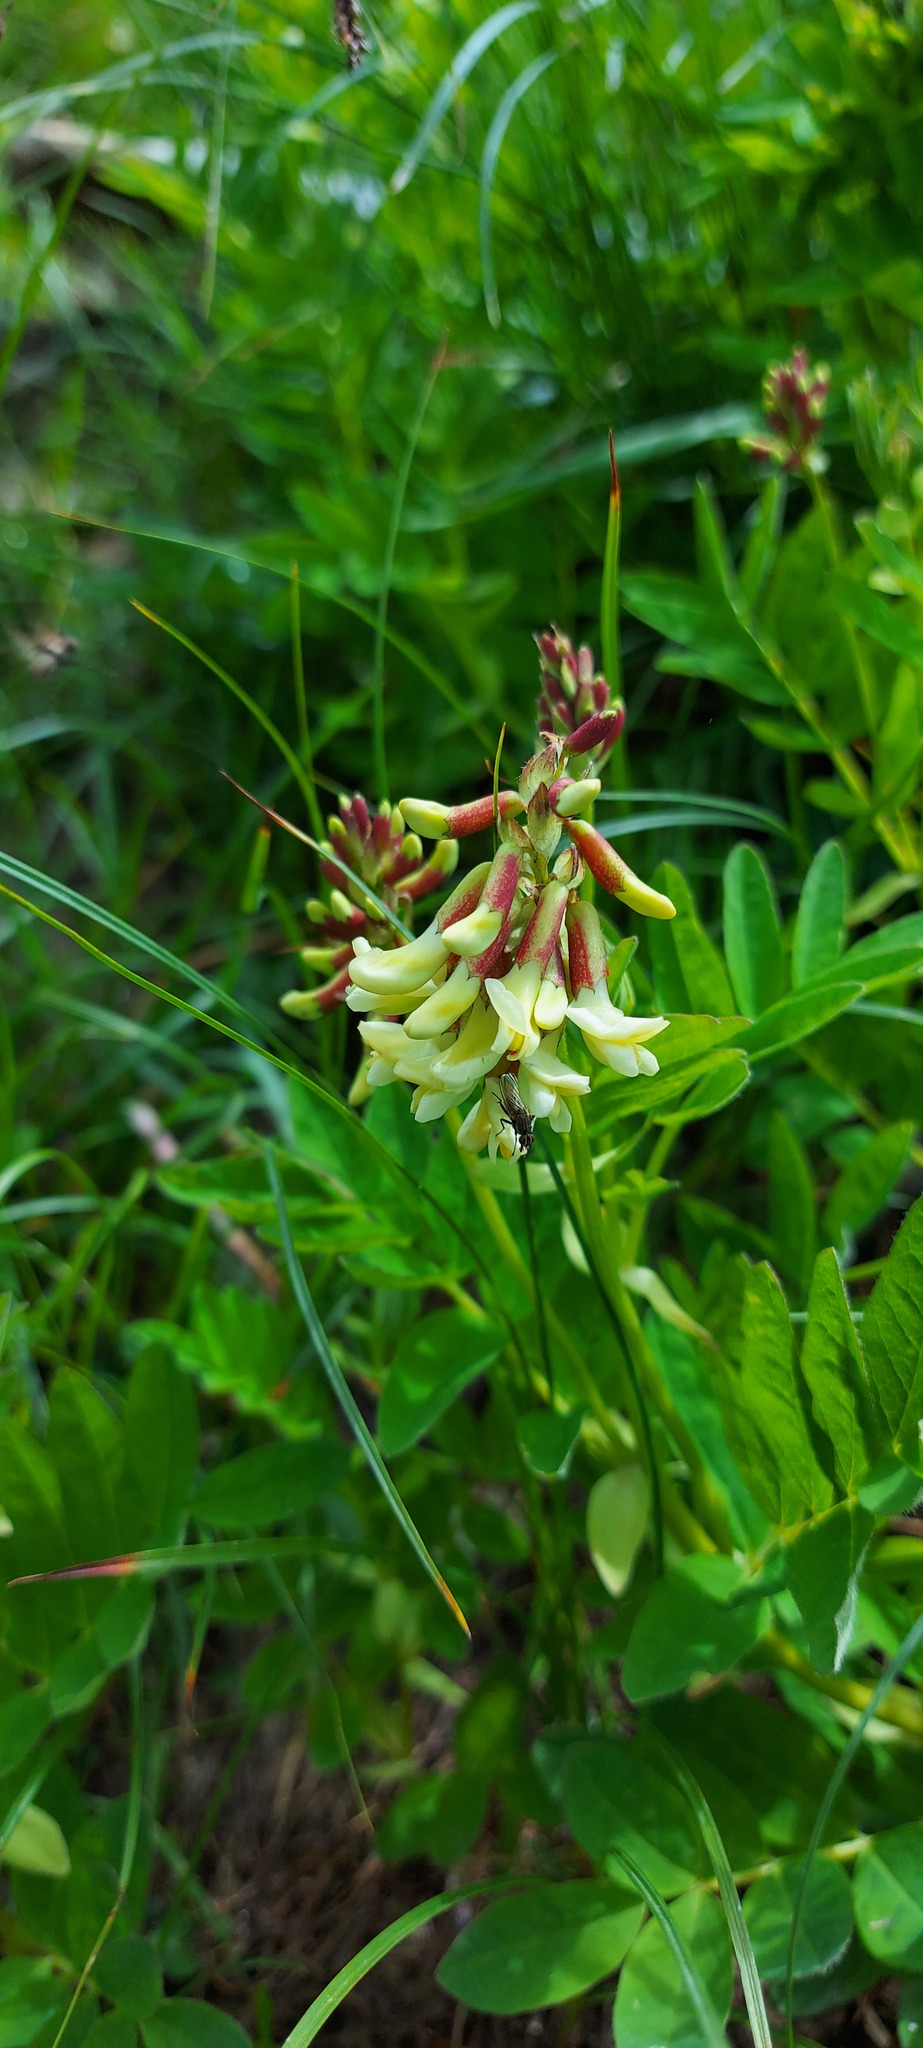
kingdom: Plantae
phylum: Tracheophyta
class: Magnoliopsida
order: Fabales
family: Fabaceae
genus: Astragalus
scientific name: Astragalus frigidus
